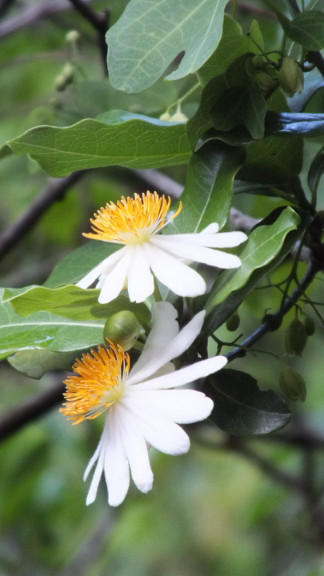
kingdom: Plantae
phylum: Tracheophyta
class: Magnoliopsida
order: Malpighiales
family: Achariaceae
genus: Xylotheca
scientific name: Xylotheca kraussiana
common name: African dog rose
